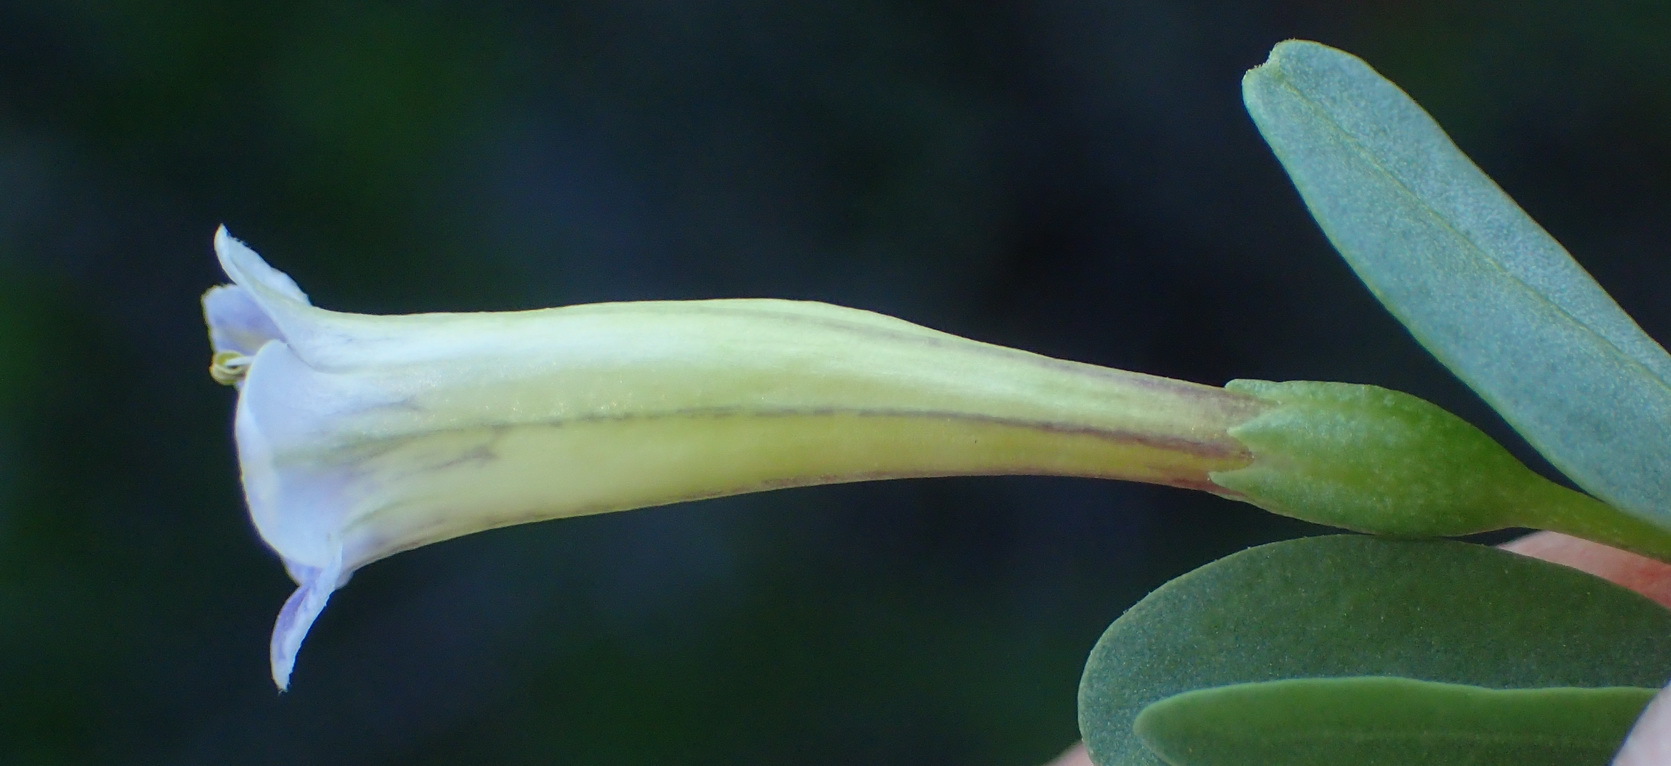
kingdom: Plantae
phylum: Tracheophyta
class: Magnoliopsida
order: Solanales
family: Solanaceae
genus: Lycium
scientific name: Lycium oxycarpum
